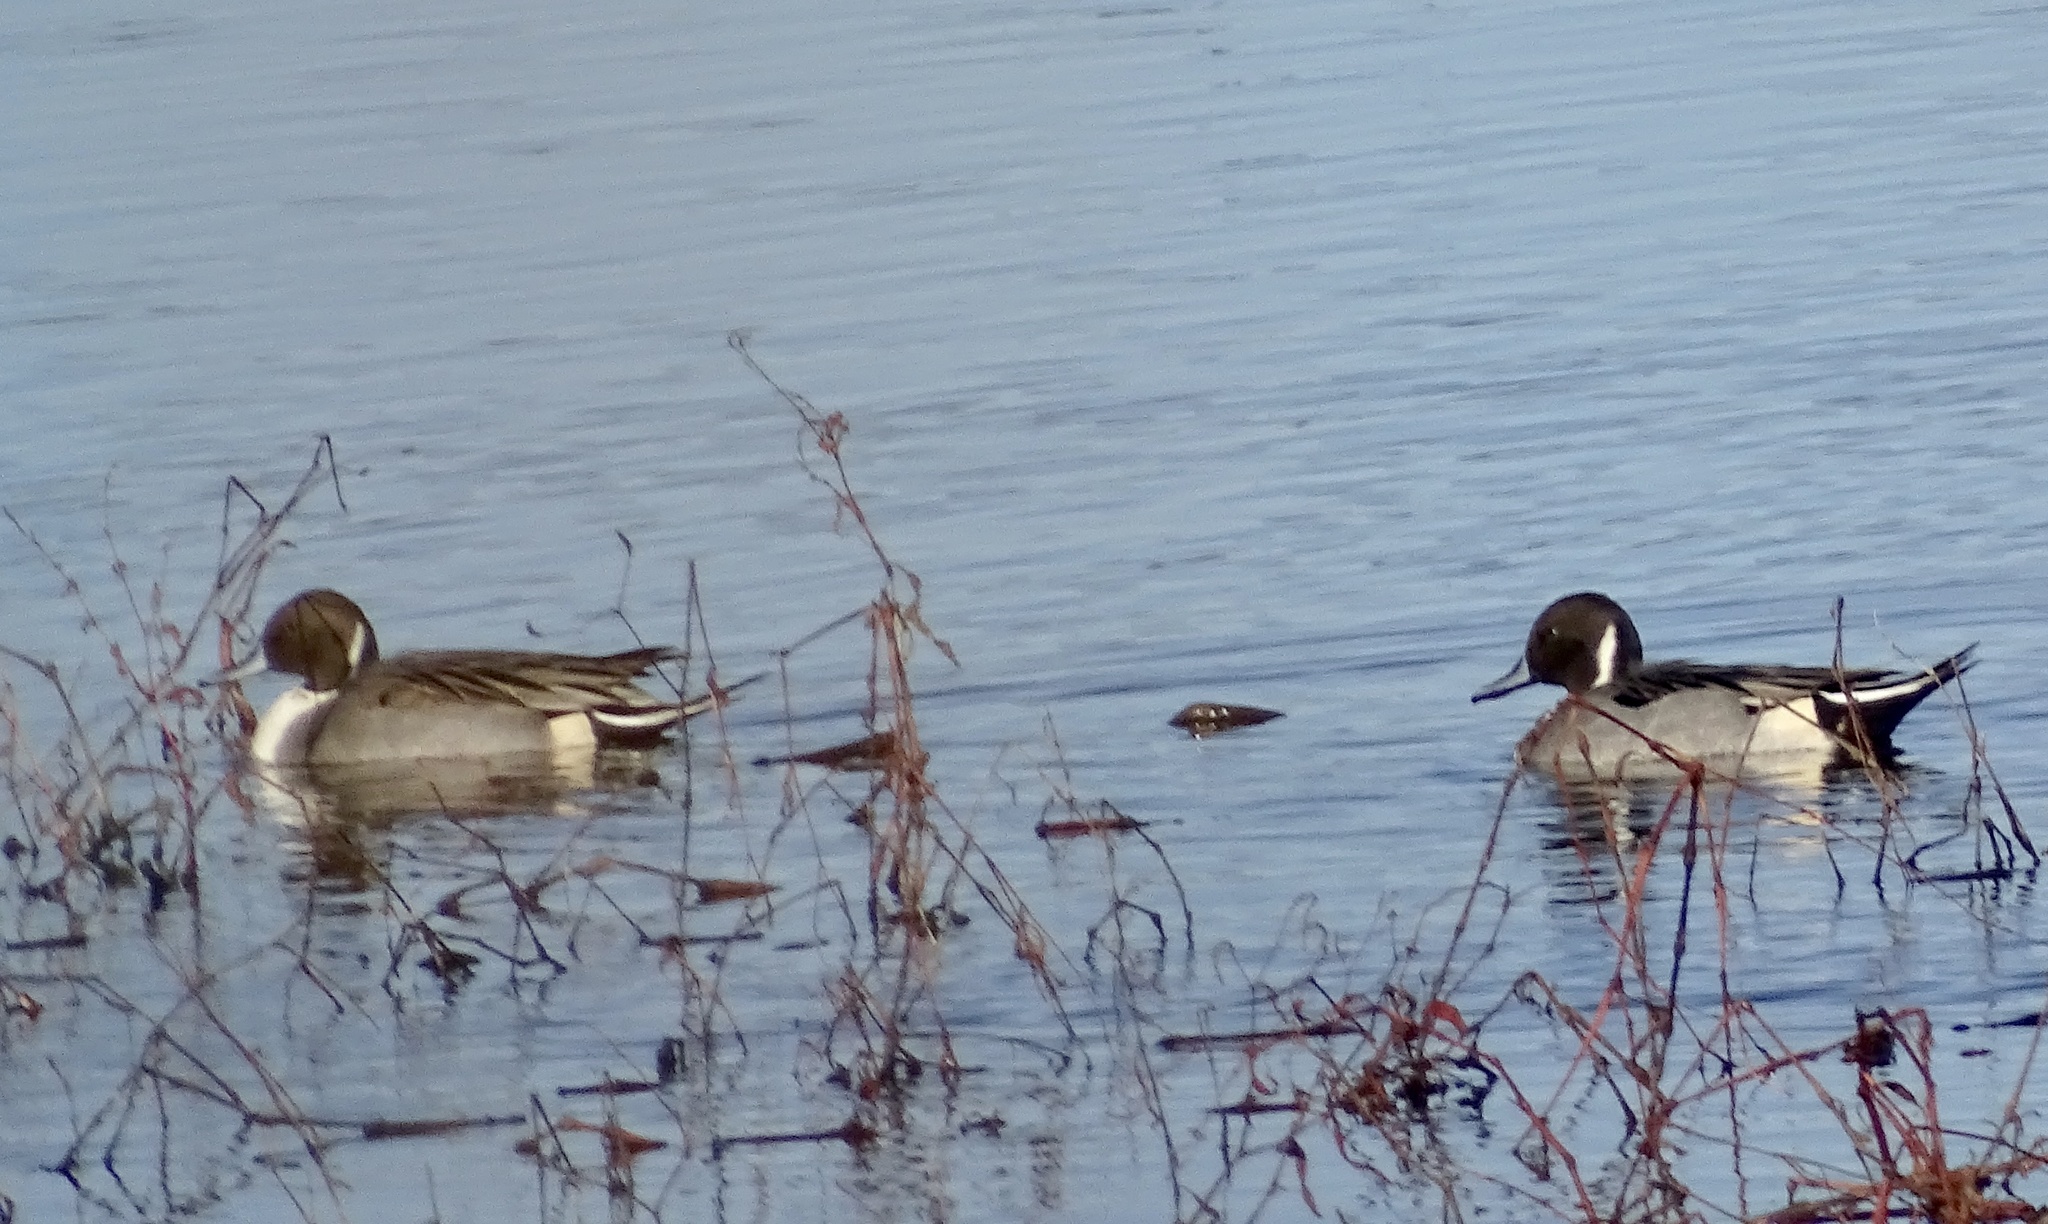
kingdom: Animalia
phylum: Chordata
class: Aves
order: Anseriformes
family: Anatidae
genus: Anas
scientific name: Anas acuta
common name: Northern pintail
